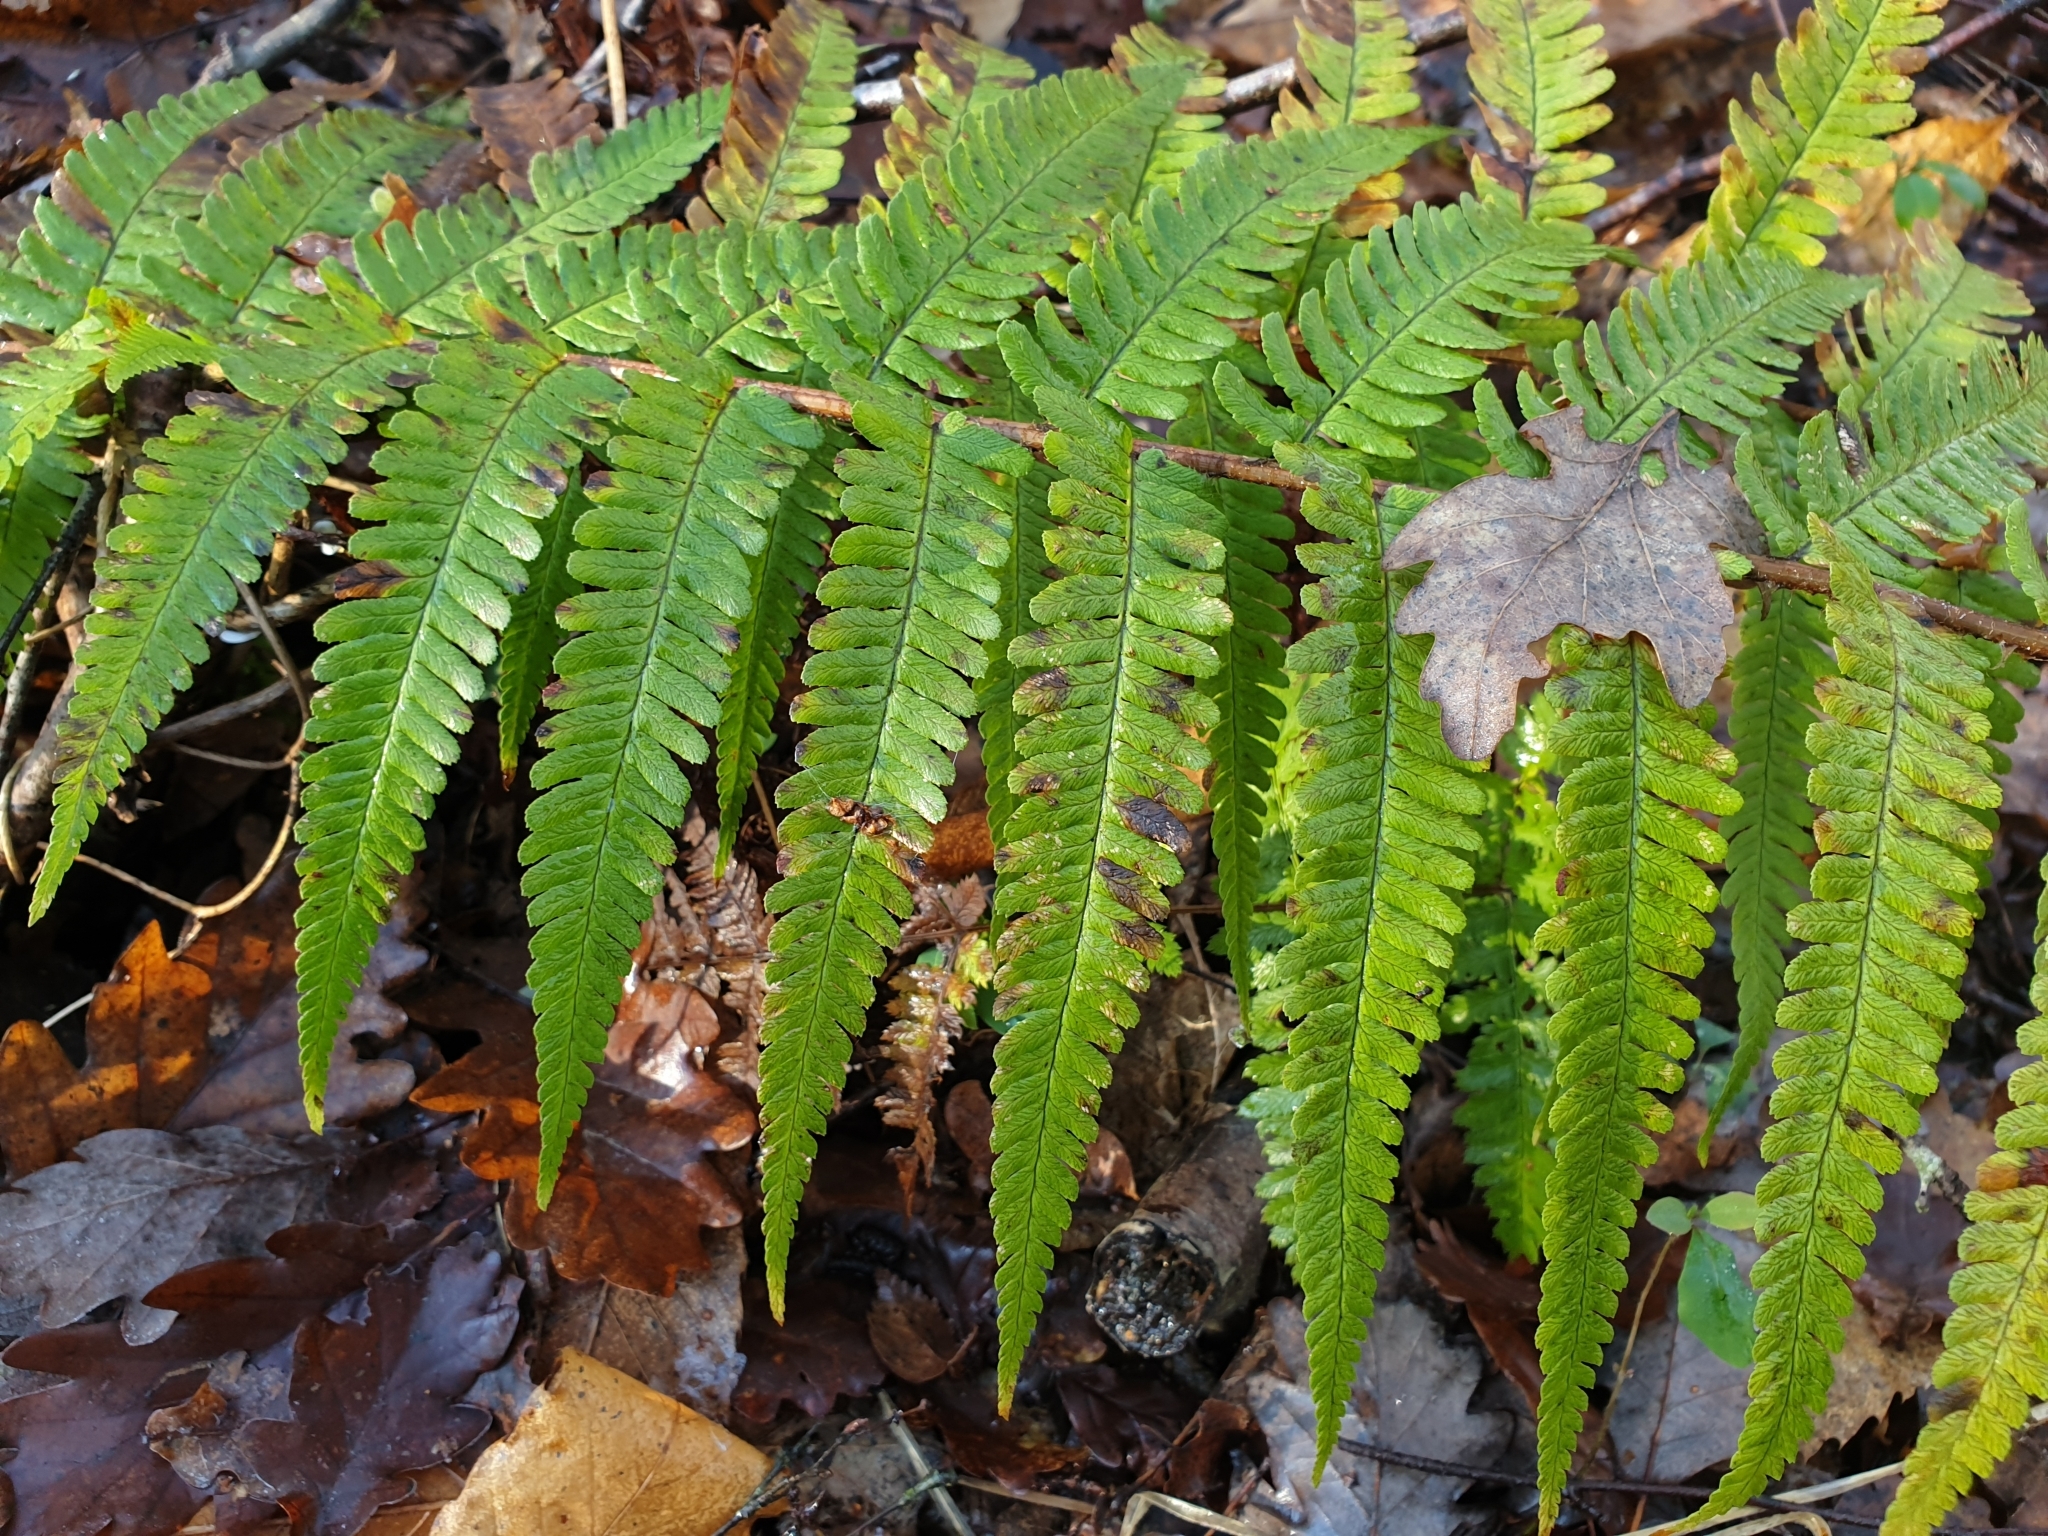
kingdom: Plantae
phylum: Tracheophyta
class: Polypodiopsida
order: Polypodiales
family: Dryopteridaceae
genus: Dryopteris
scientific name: Dryopteris filix-mas
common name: Male fern
